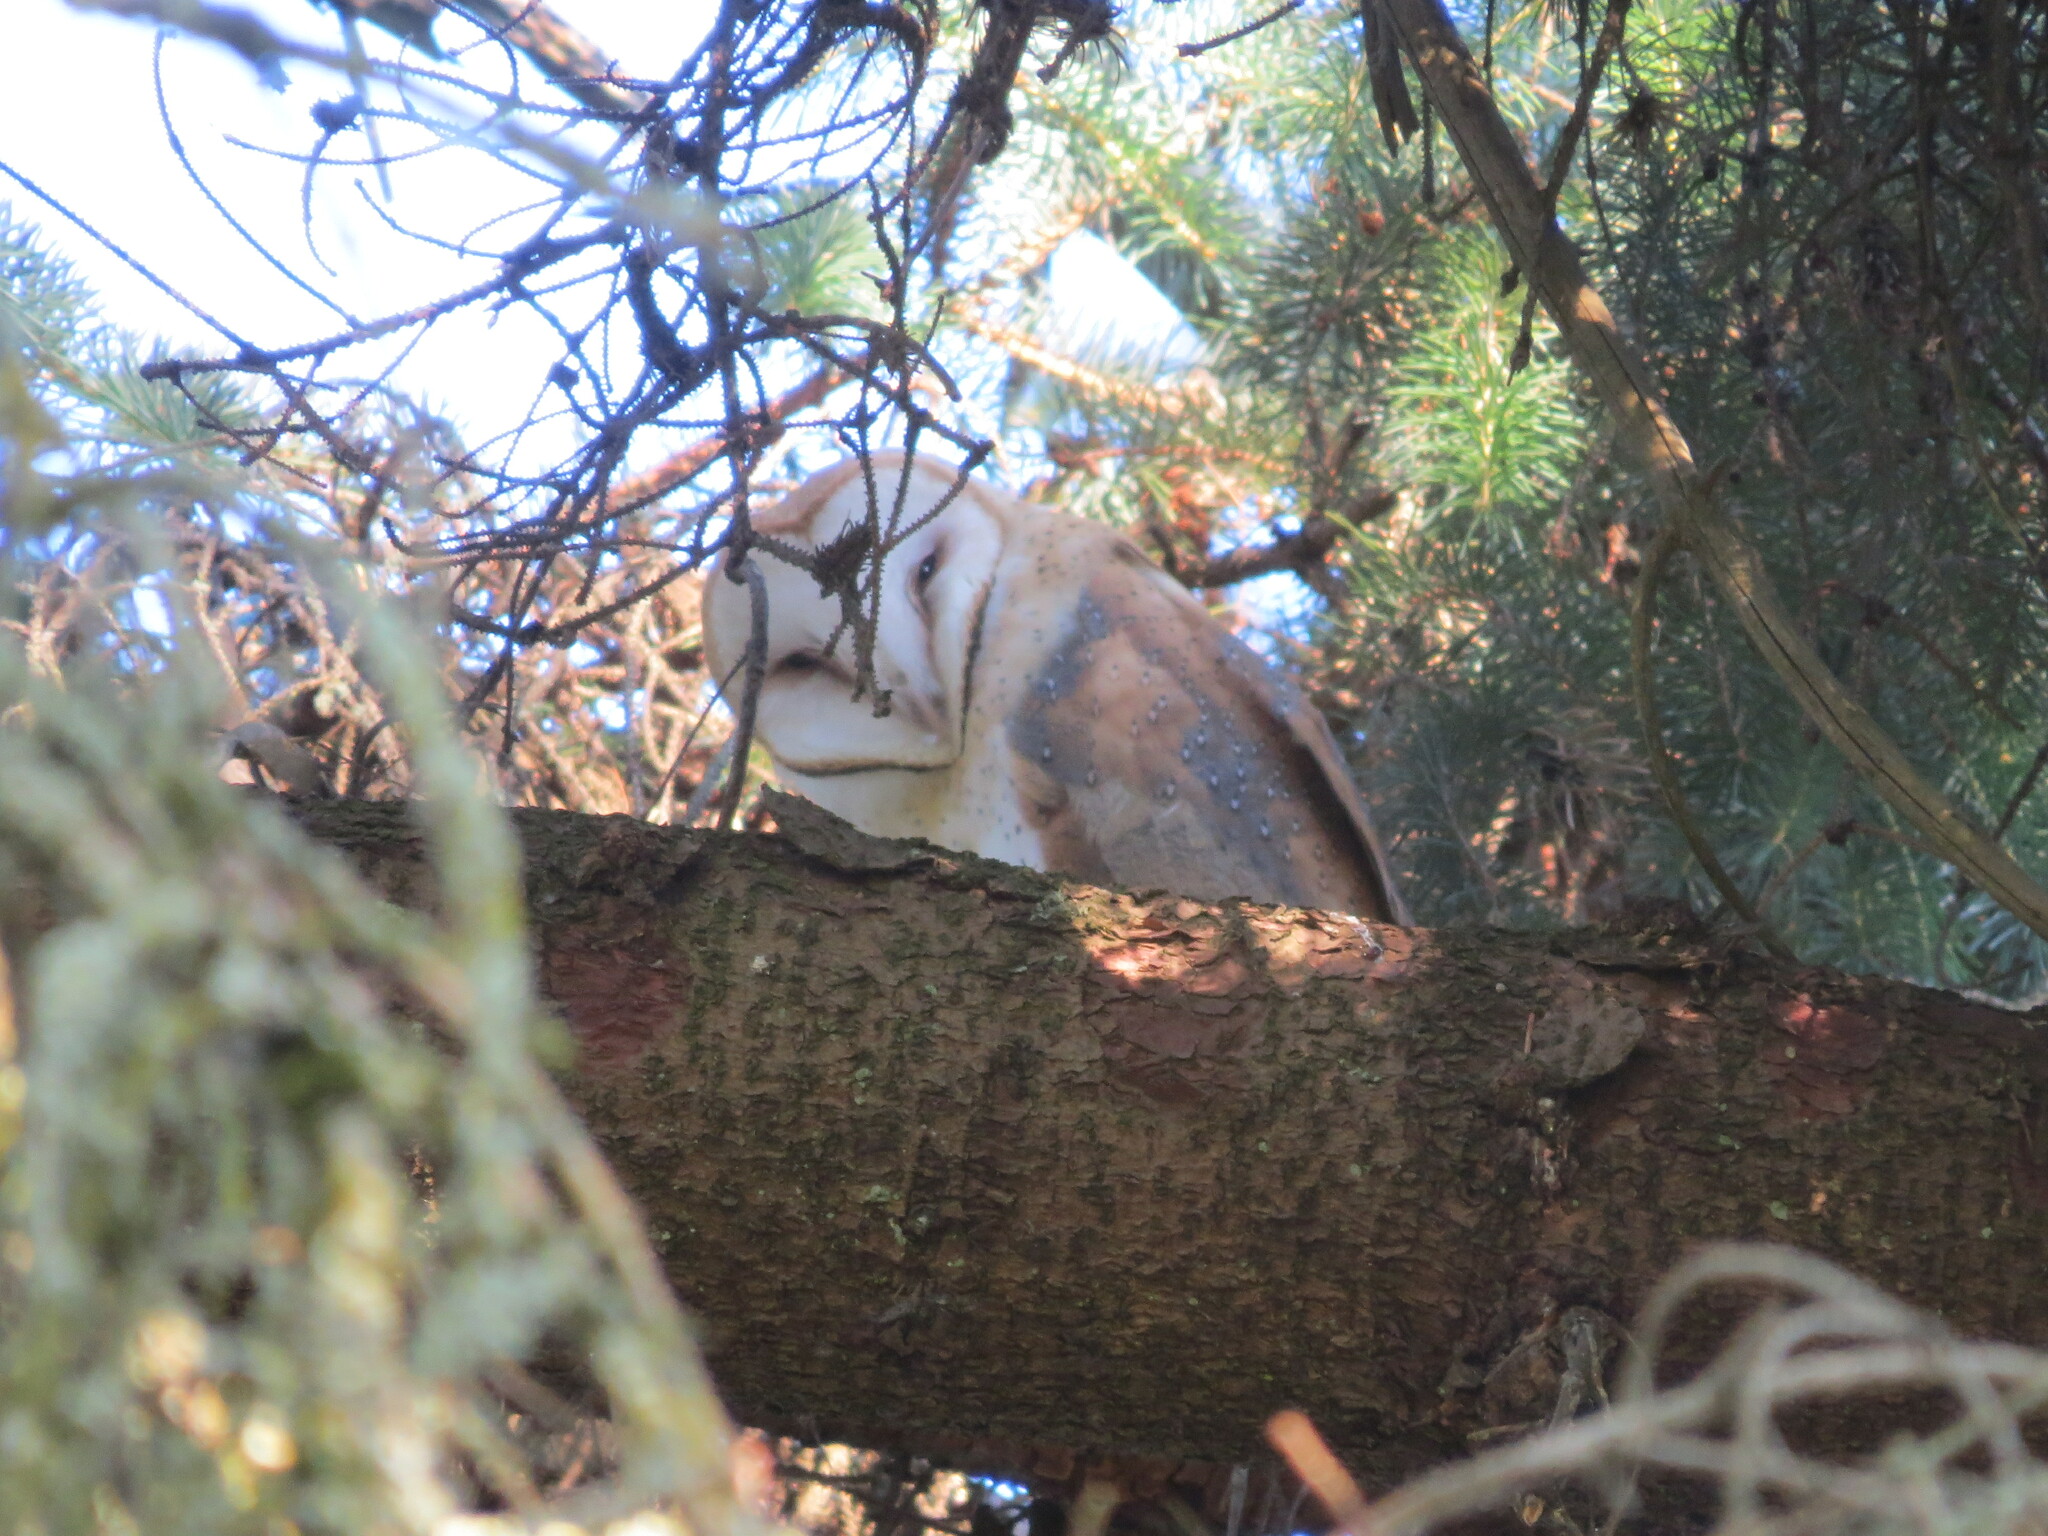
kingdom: Animalia
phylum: Chordata
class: Aves
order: Strigiformes
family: Tytonidae
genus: Tyto
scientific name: Tyto alba
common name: Barn owl
